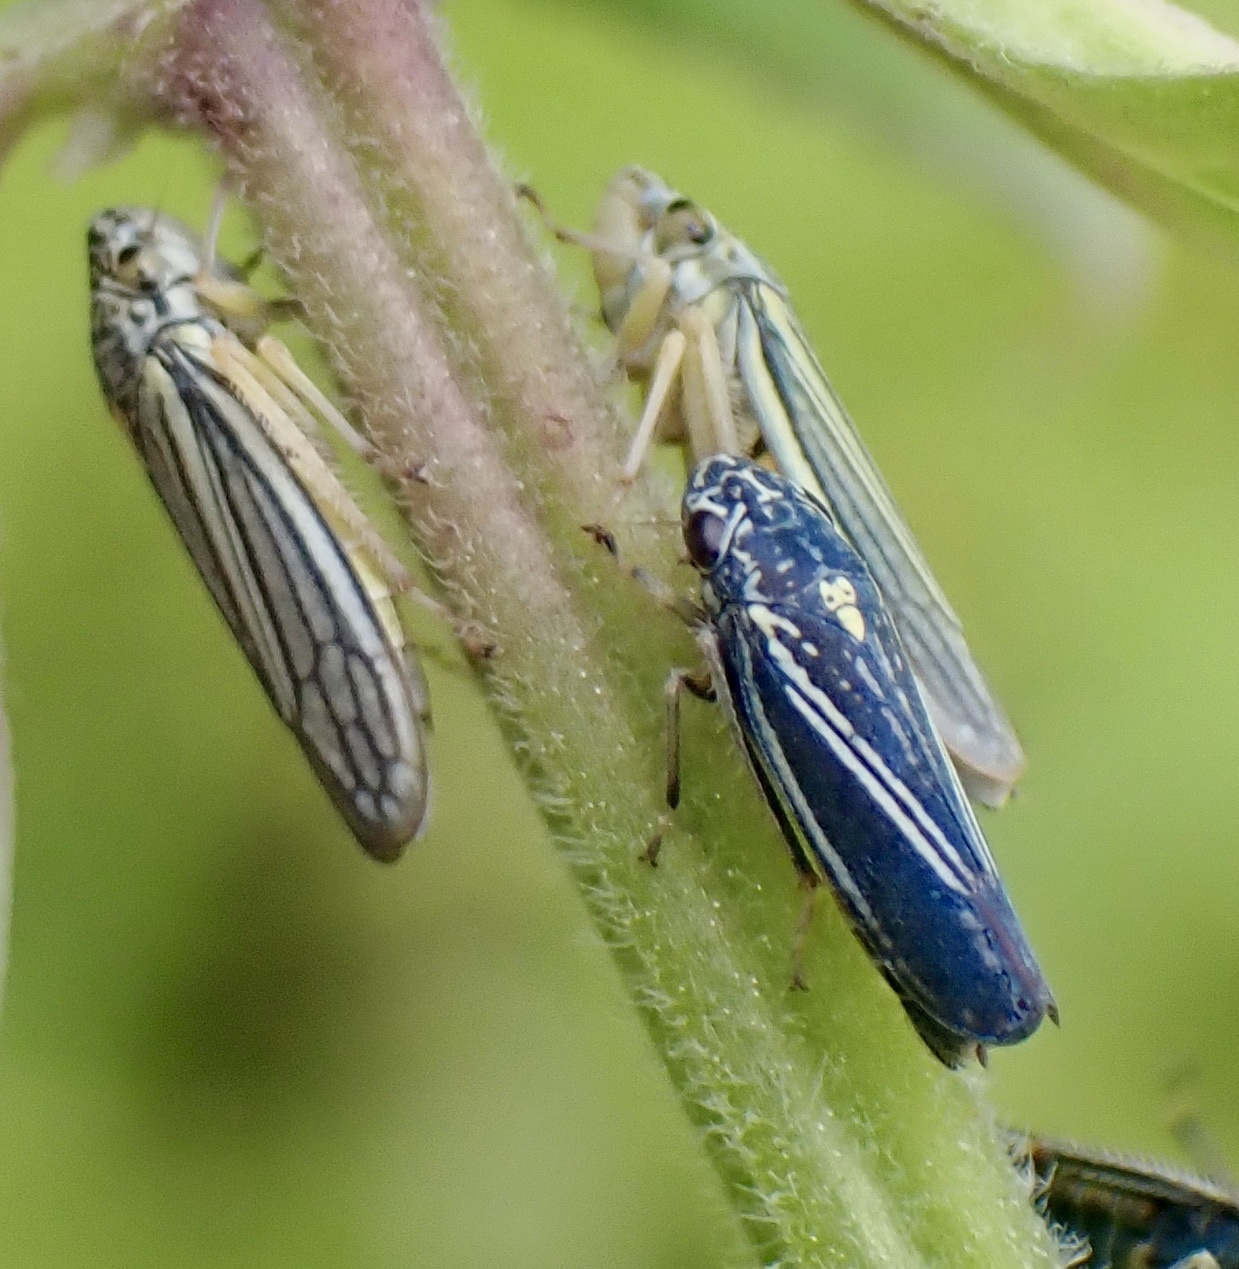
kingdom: Animalia
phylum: Arthropoda
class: Insecta
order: Hemiptera
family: Cicadellidae
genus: Neokolla
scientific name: Neokolla hieroglyphica
